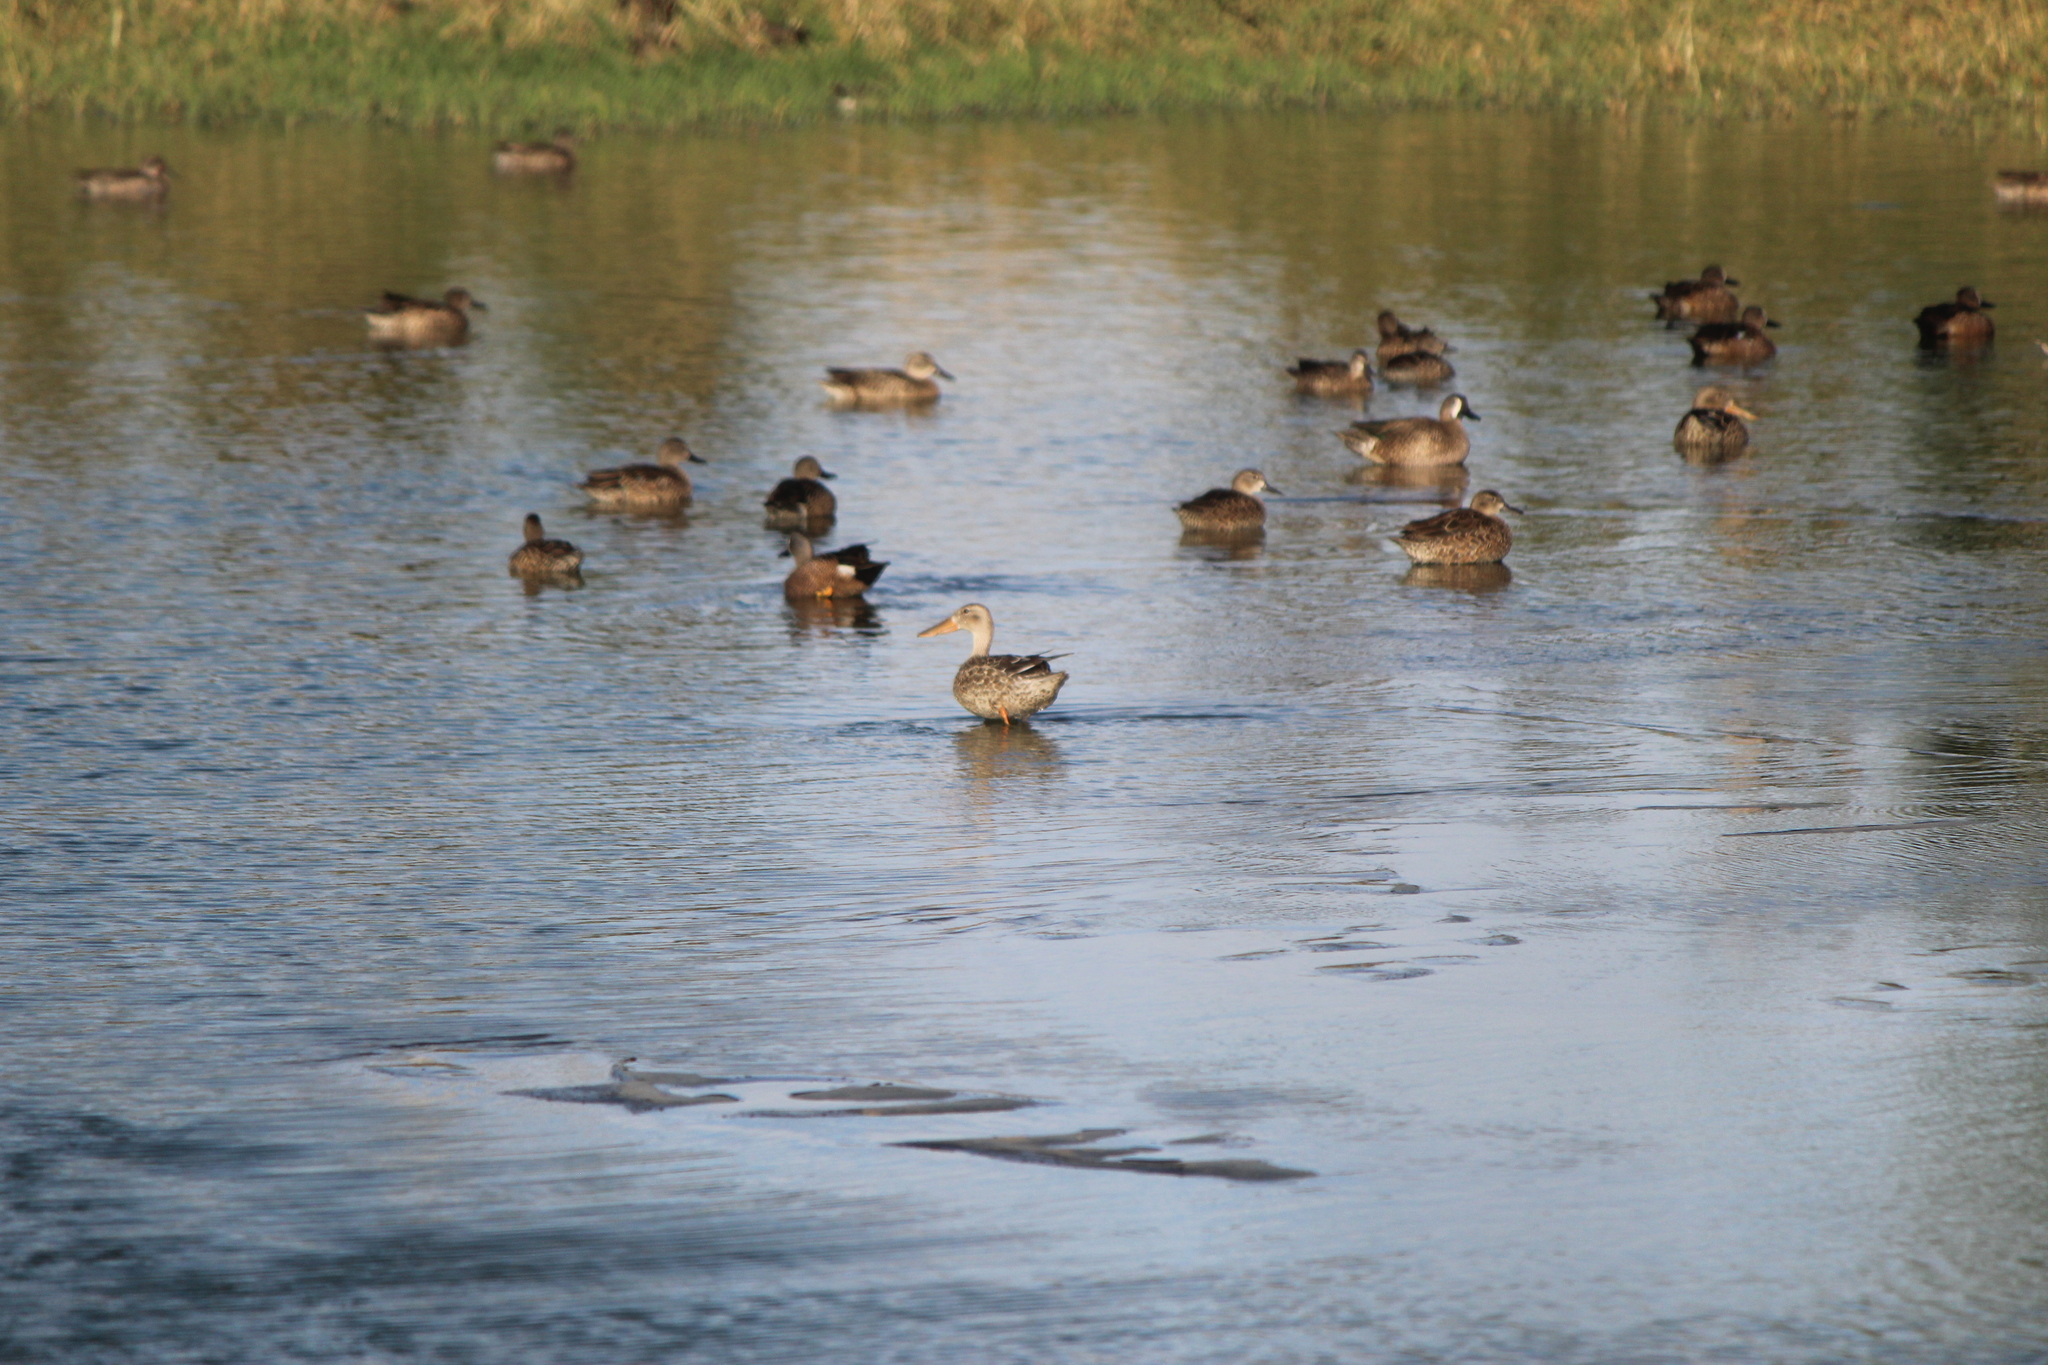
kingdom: Animalia
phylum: Chordata
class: Aves
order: Anseriformes
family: Anatidae
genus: Spatula
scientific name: Spatula clypeata
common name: Northern shoveler
